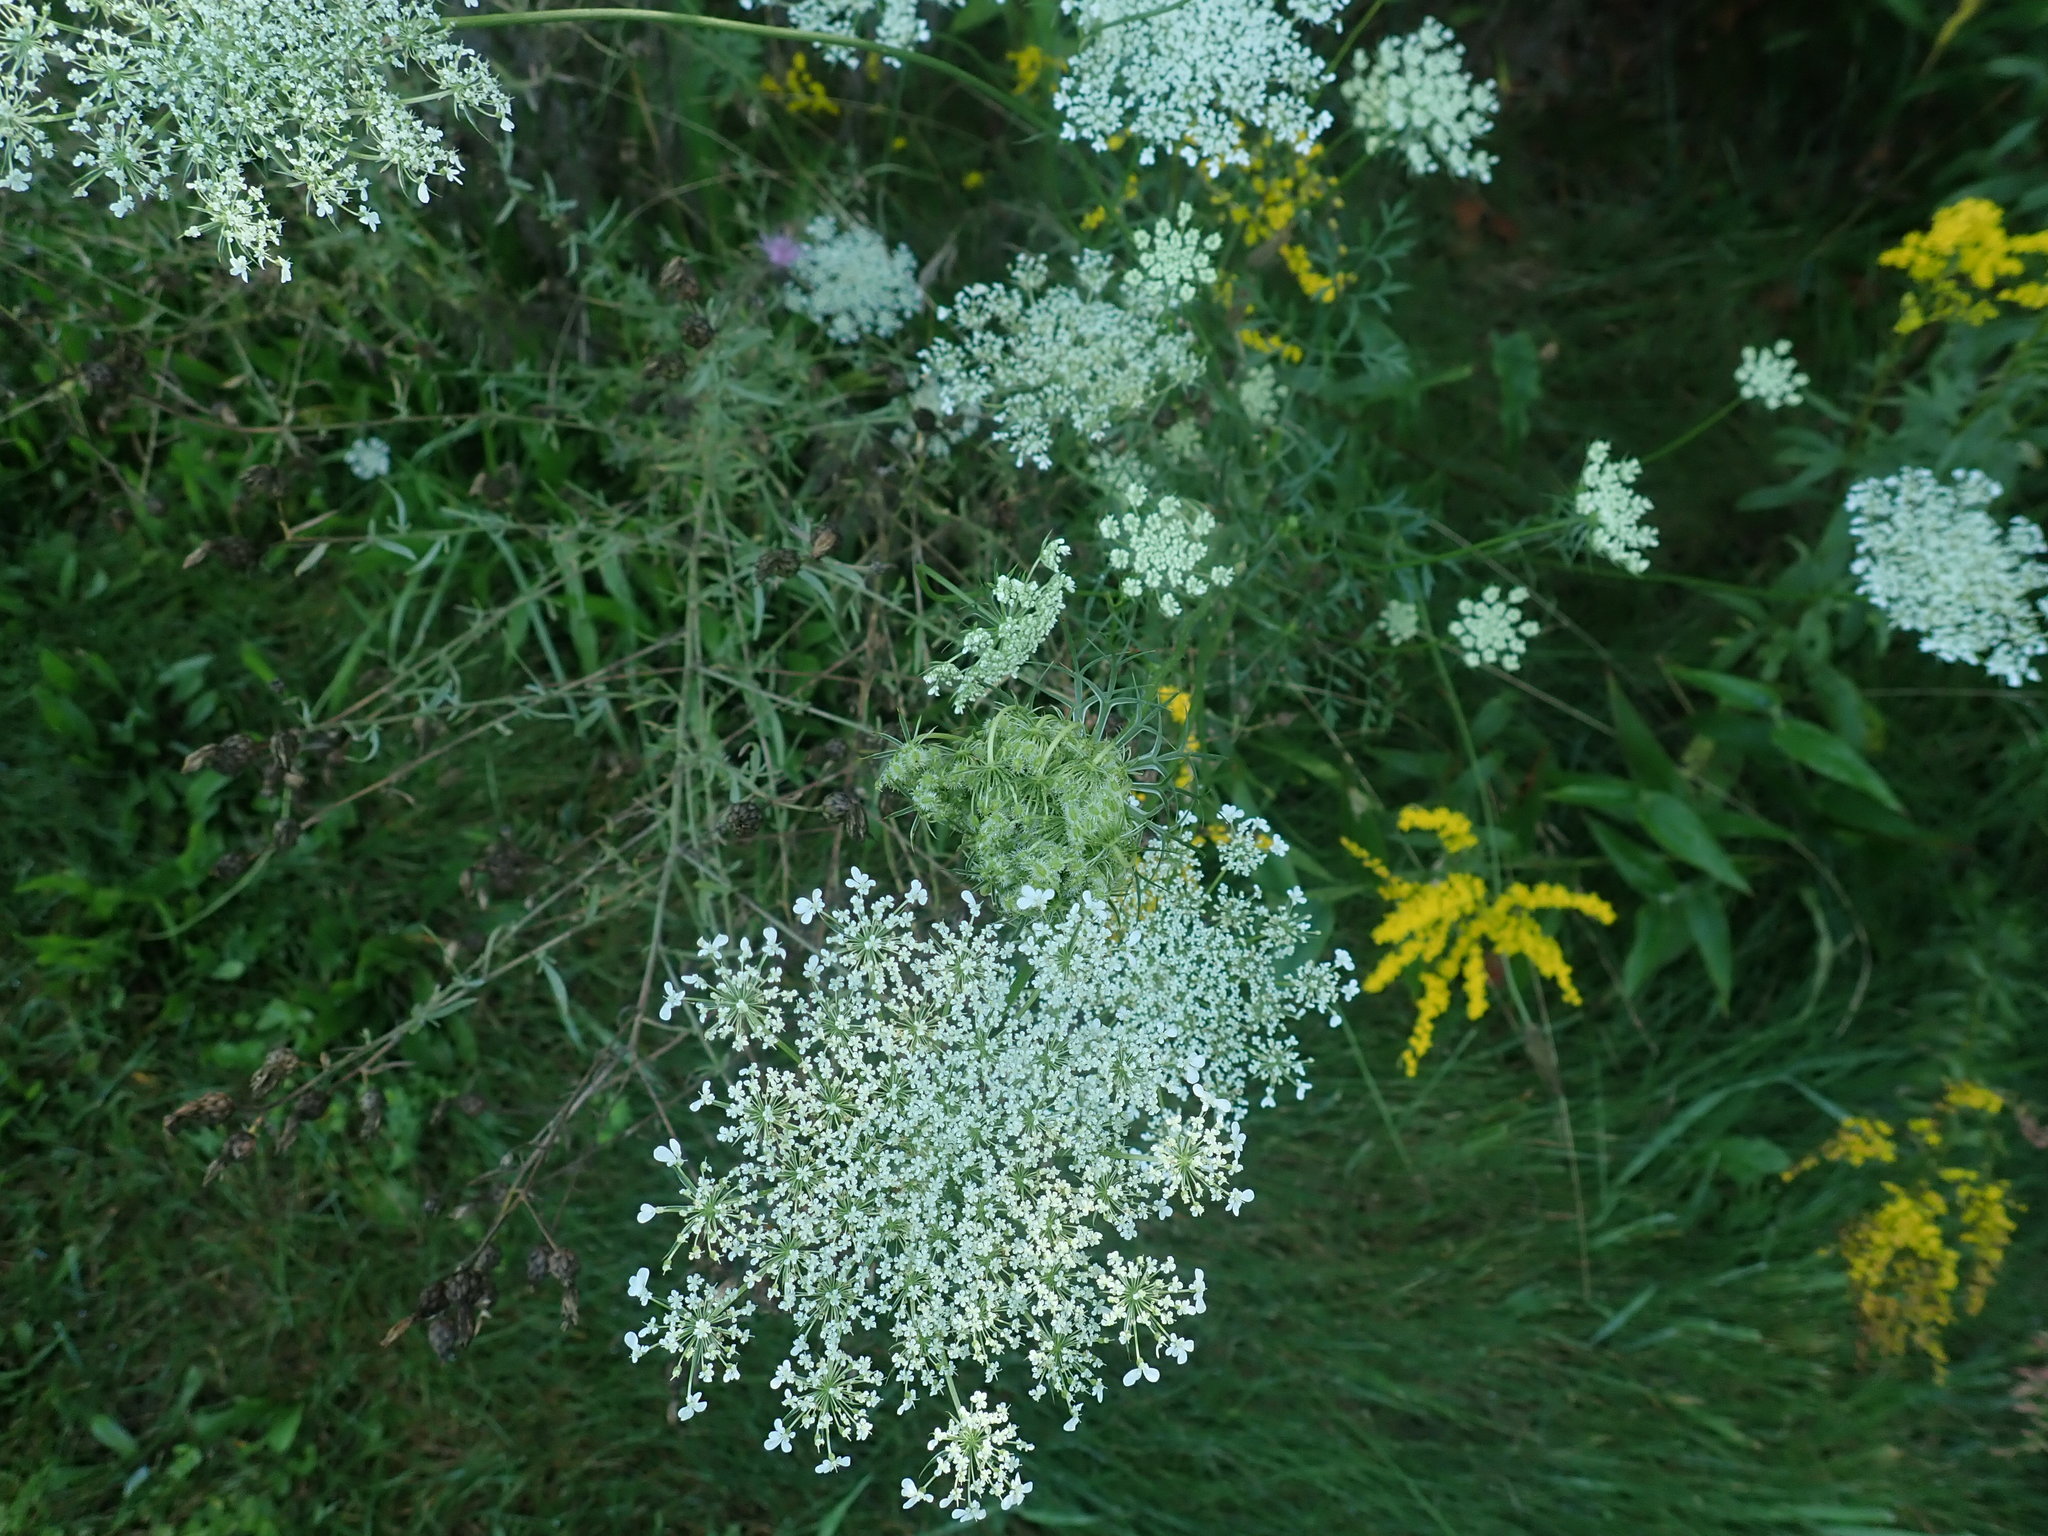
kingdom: Plantae
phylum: Tracheophyta
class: Magnoliopsida
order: Apiales
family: Apiaceae
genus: Daucus
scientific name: Daucus carota
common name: Wild carrot
